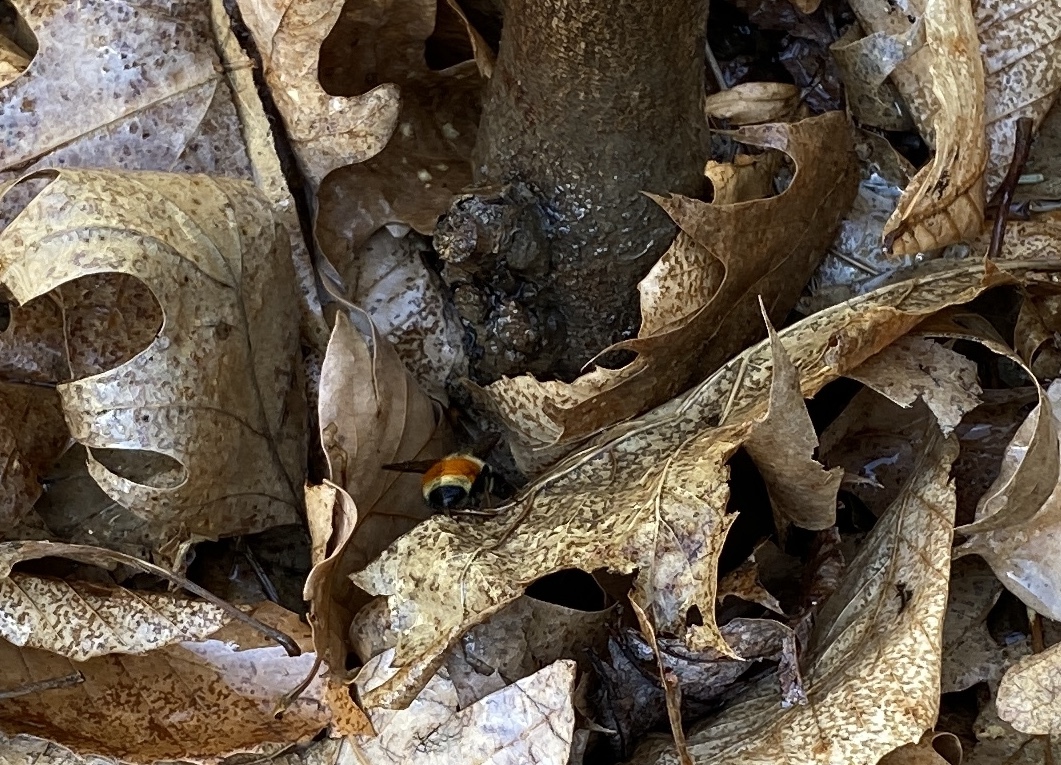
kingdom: Animalia
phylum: Arthropoda
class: Insecta
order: Hymenoptera
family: Apidae
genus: Bombus
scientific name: Bombus ternarius
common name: Tri-colored bumble bee
